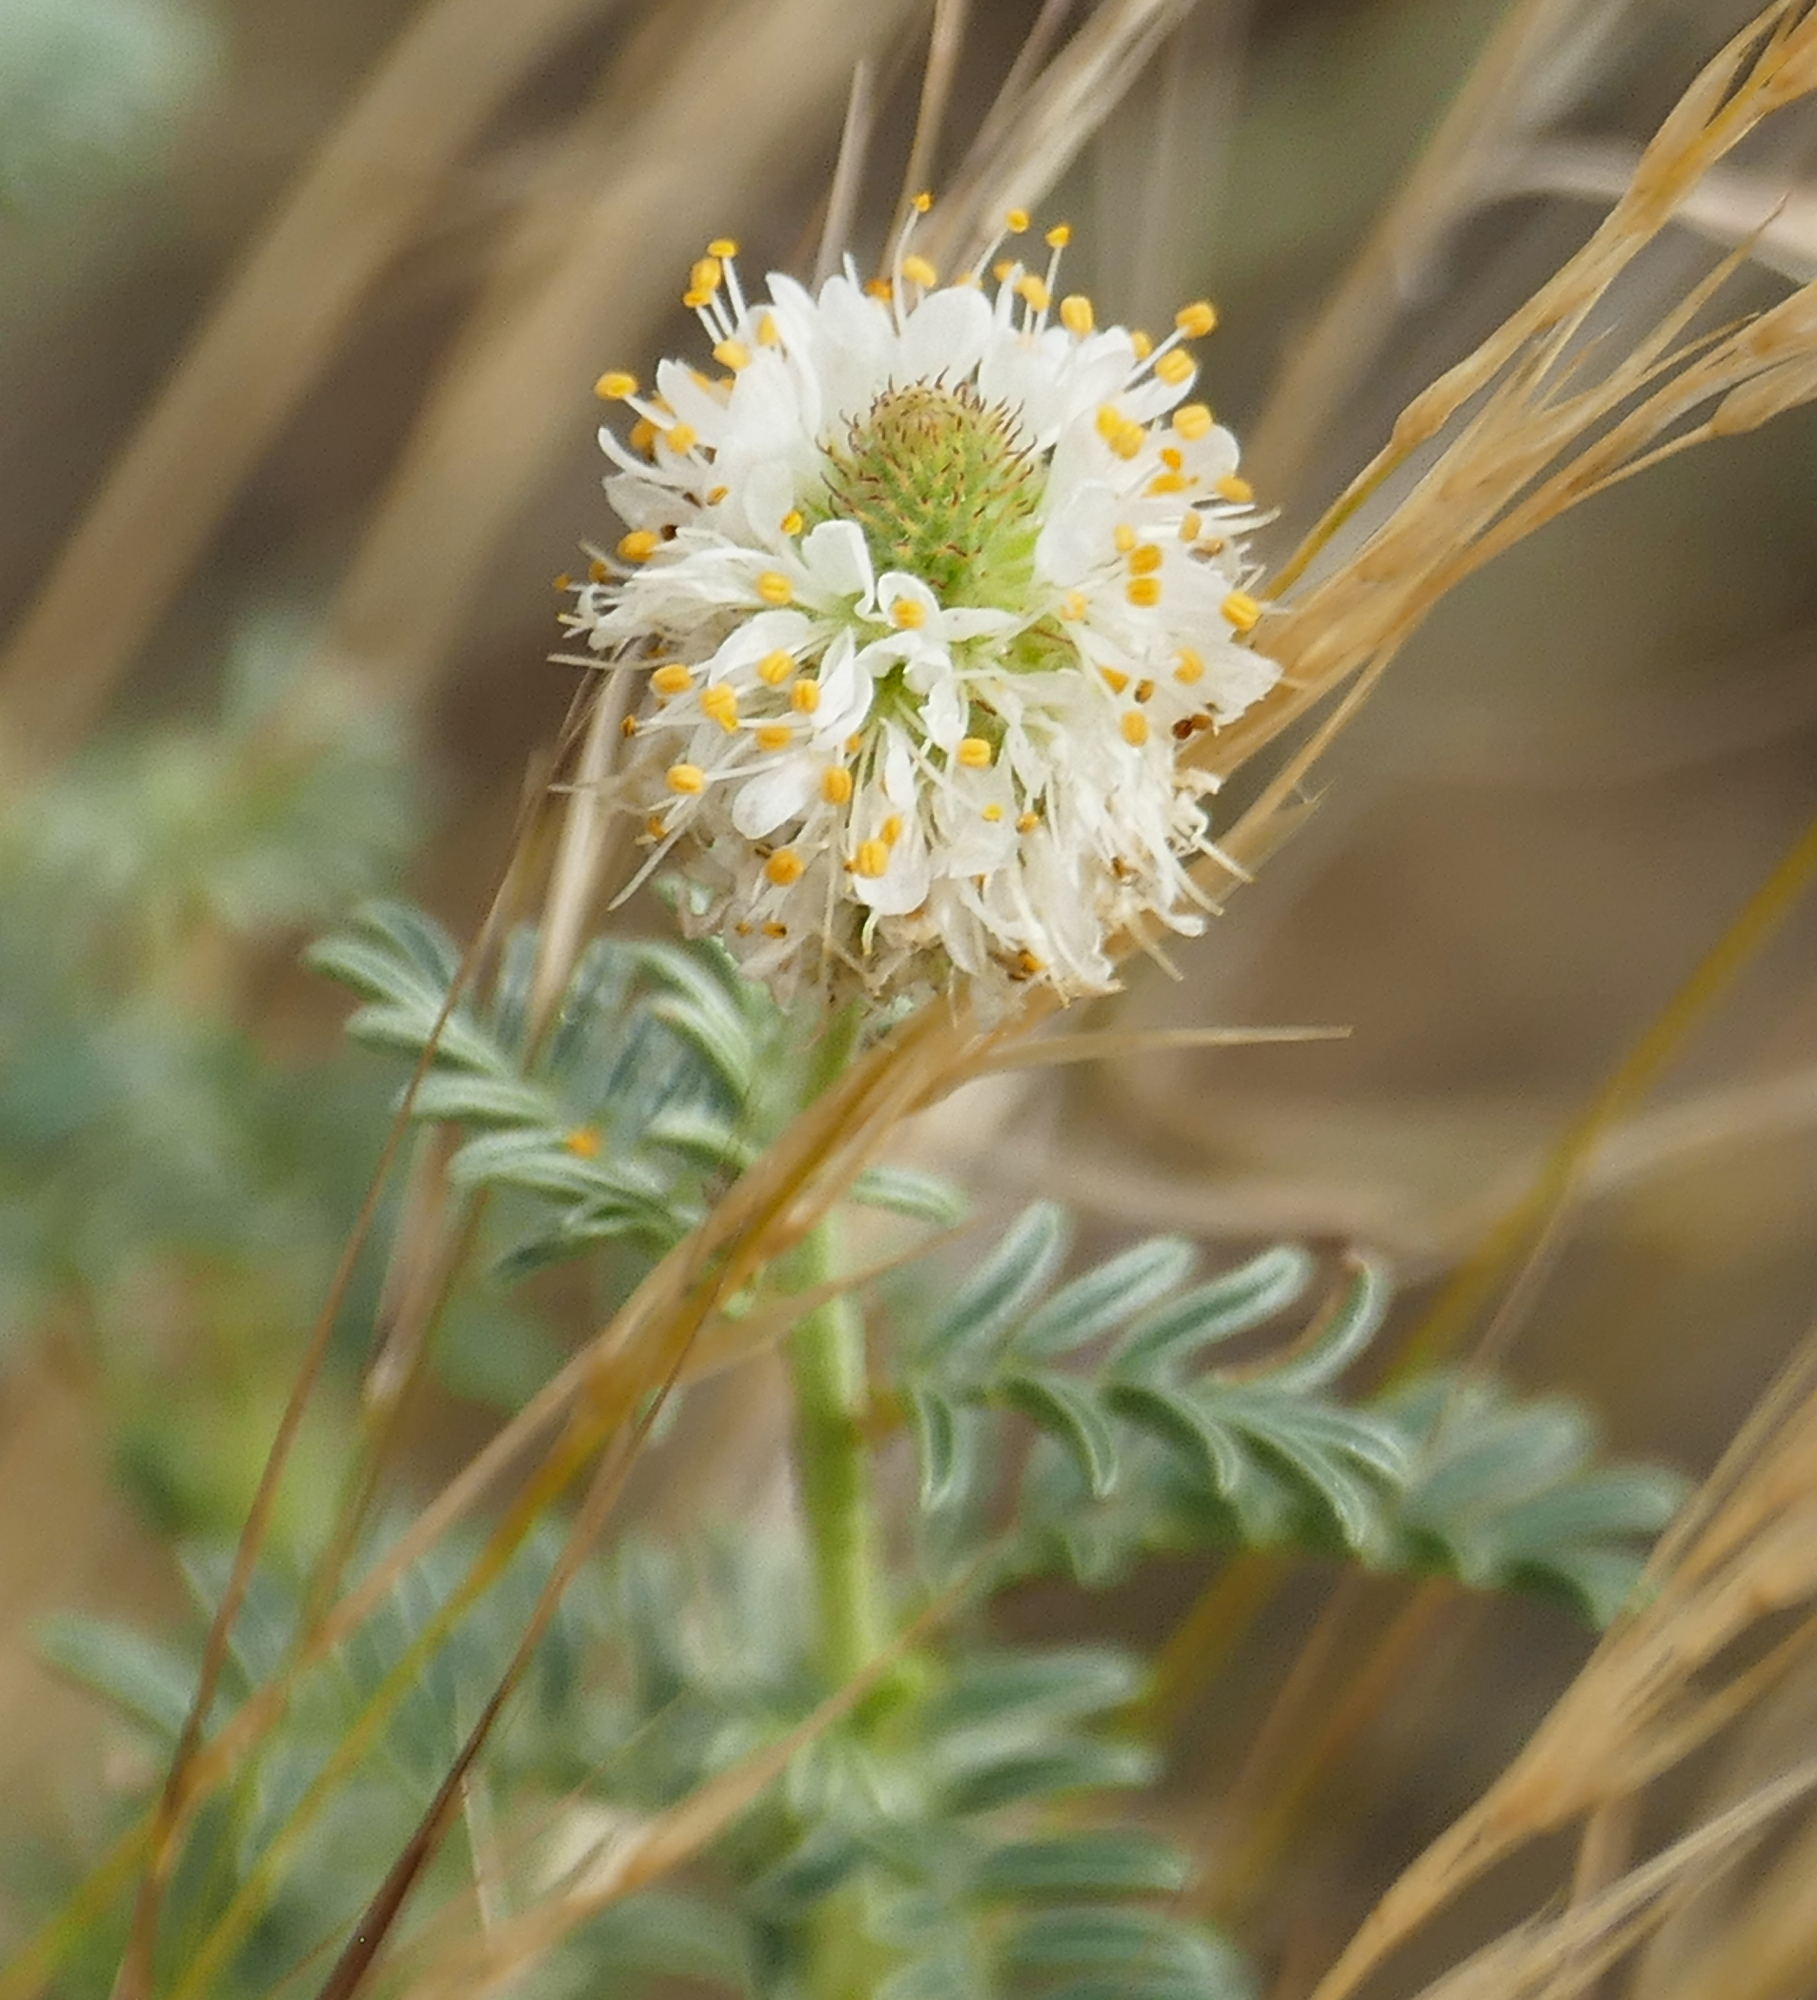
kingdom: Plantae
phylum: Tracheophyta
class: Magnoliopsida
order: Fabales
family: Fabaceae
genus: Dalea
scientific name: Dalea albiflora
